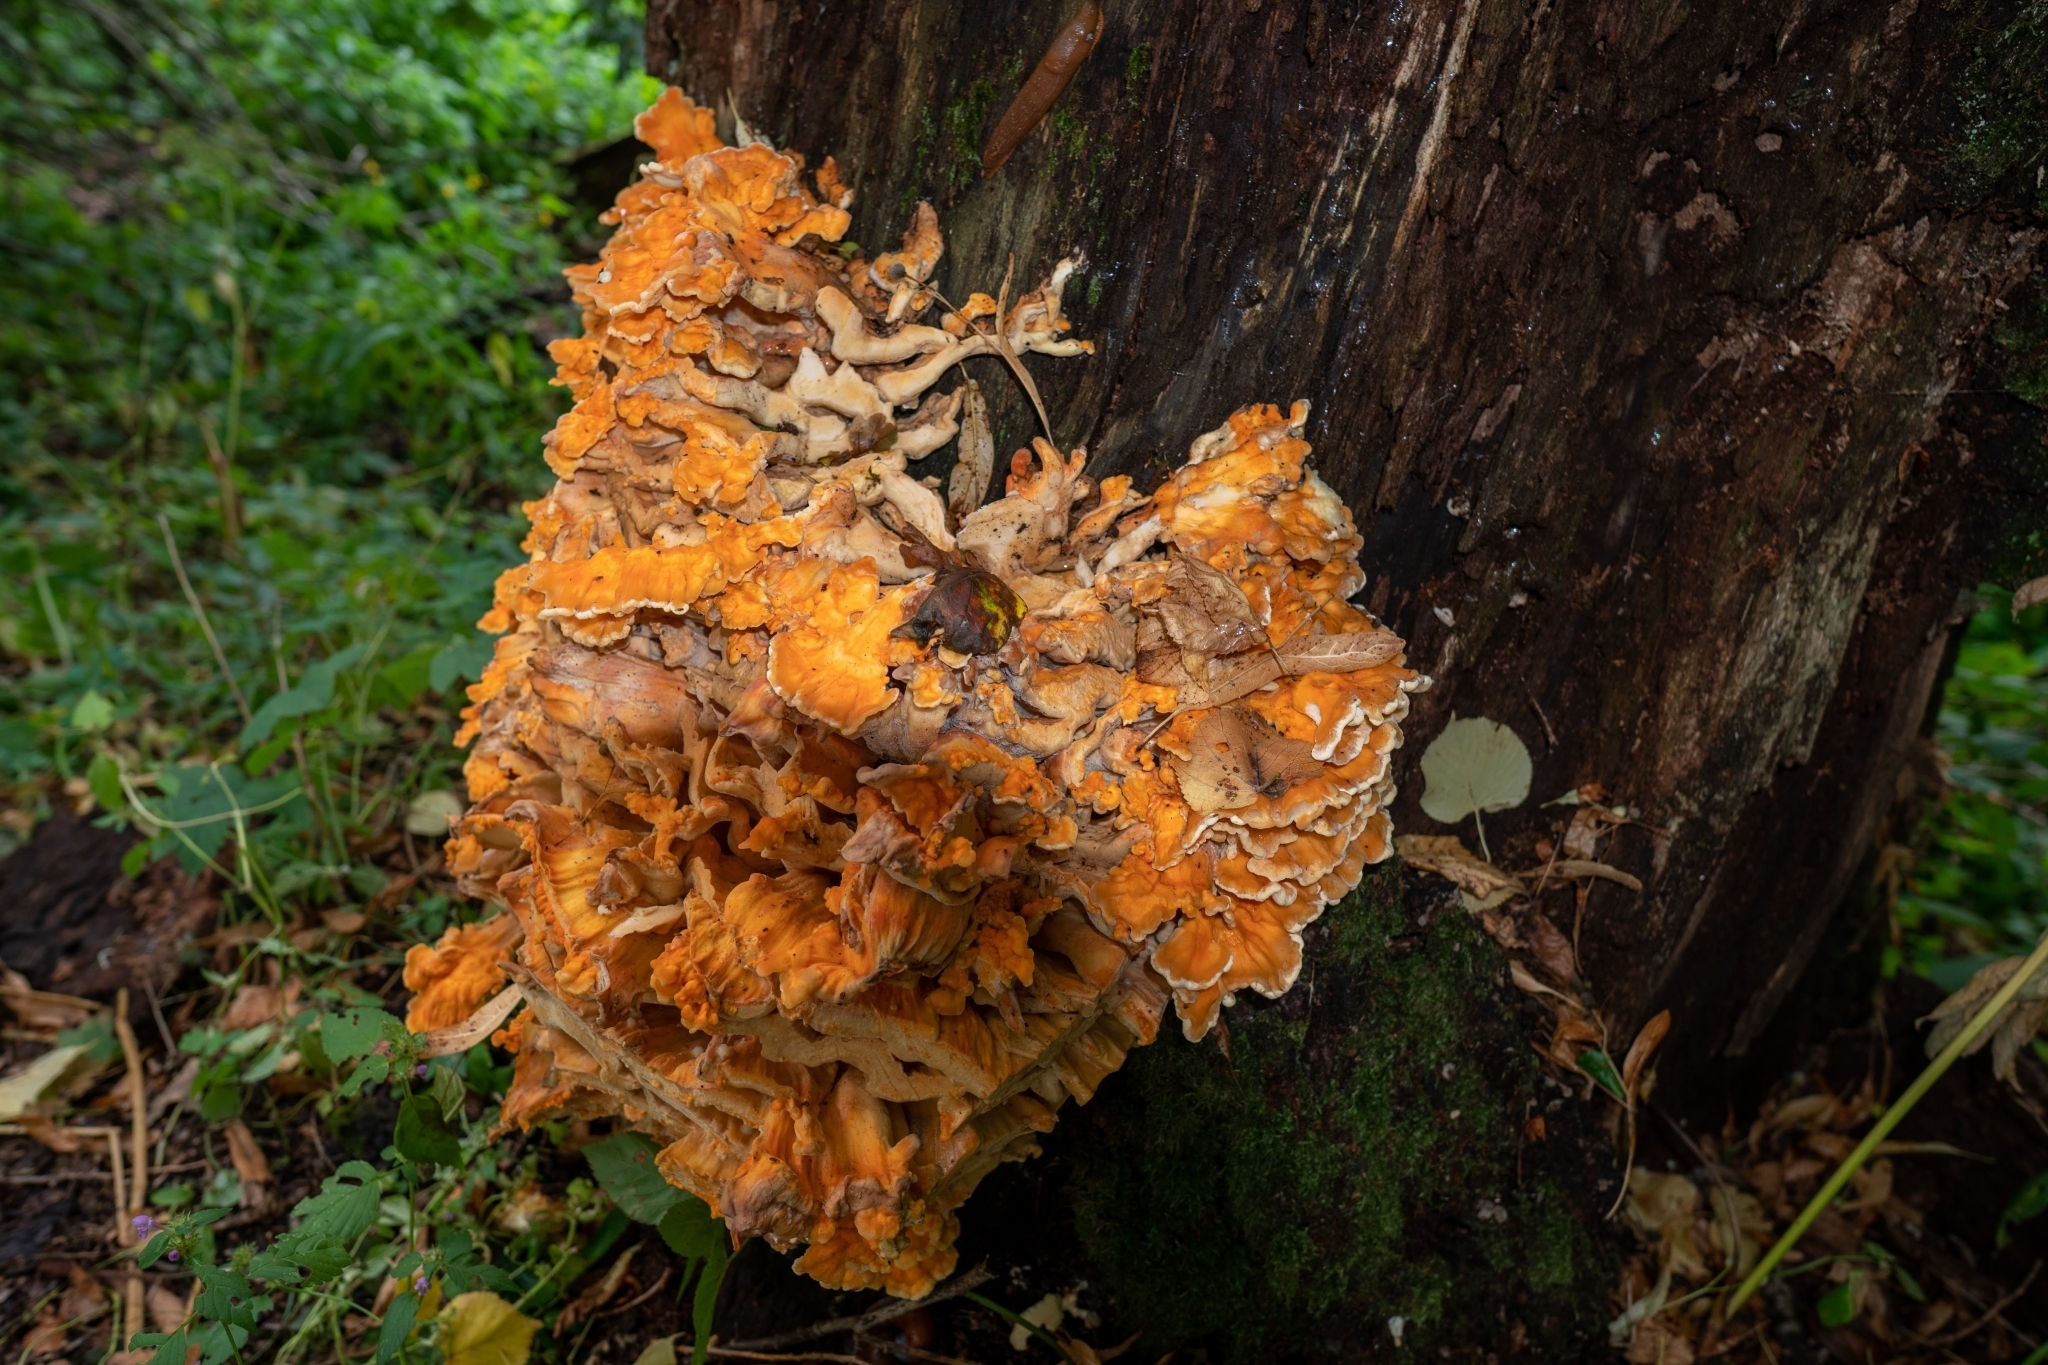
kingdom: Fungi
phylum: Basidiomycota
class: Agaricomycetes
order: Polyporales
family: Laetiporaceae
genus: Laetiporus
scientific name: Laetiporus sulphureus
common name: Chicken of the woods
